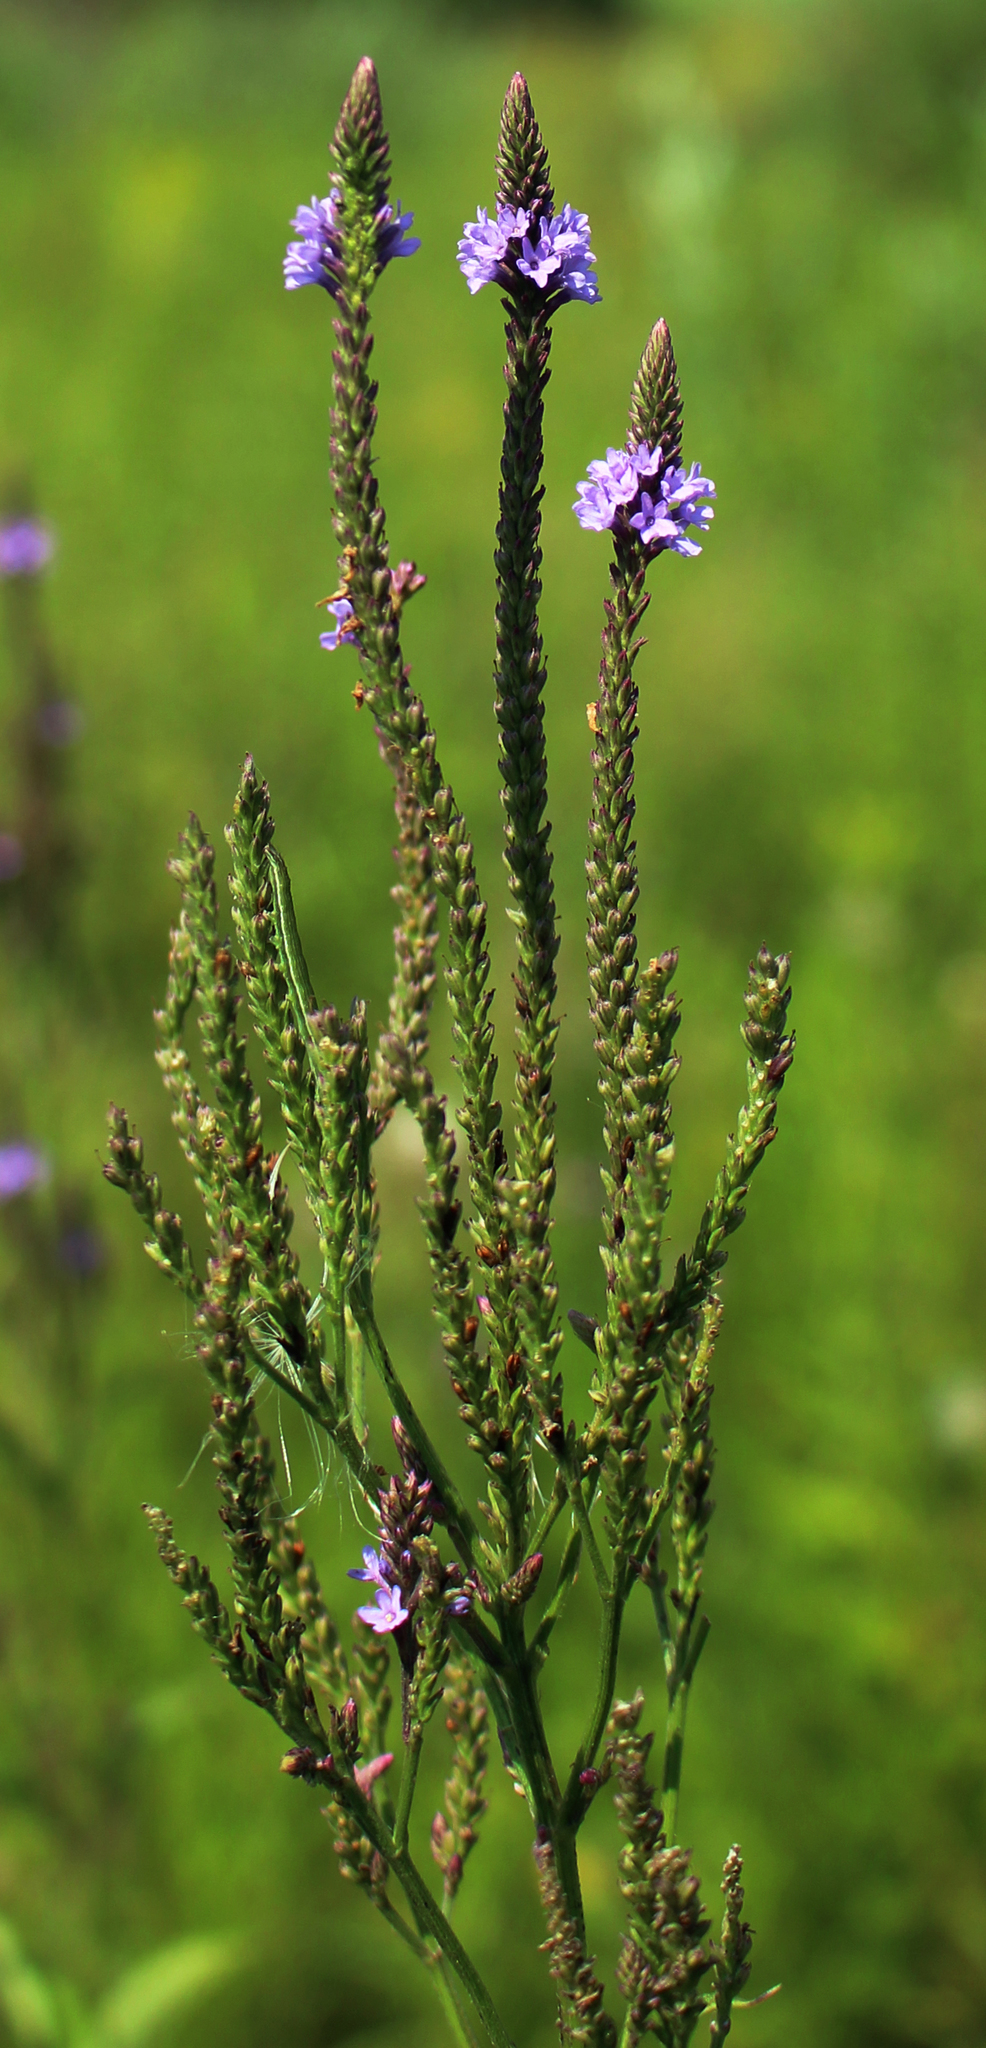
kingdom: Plantae
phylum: Tracheophyta
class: Magnoliopsida
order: Lamiales
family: Verbenaceae
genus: Verbena
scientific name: Verbena hastata
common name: American blue vervain
